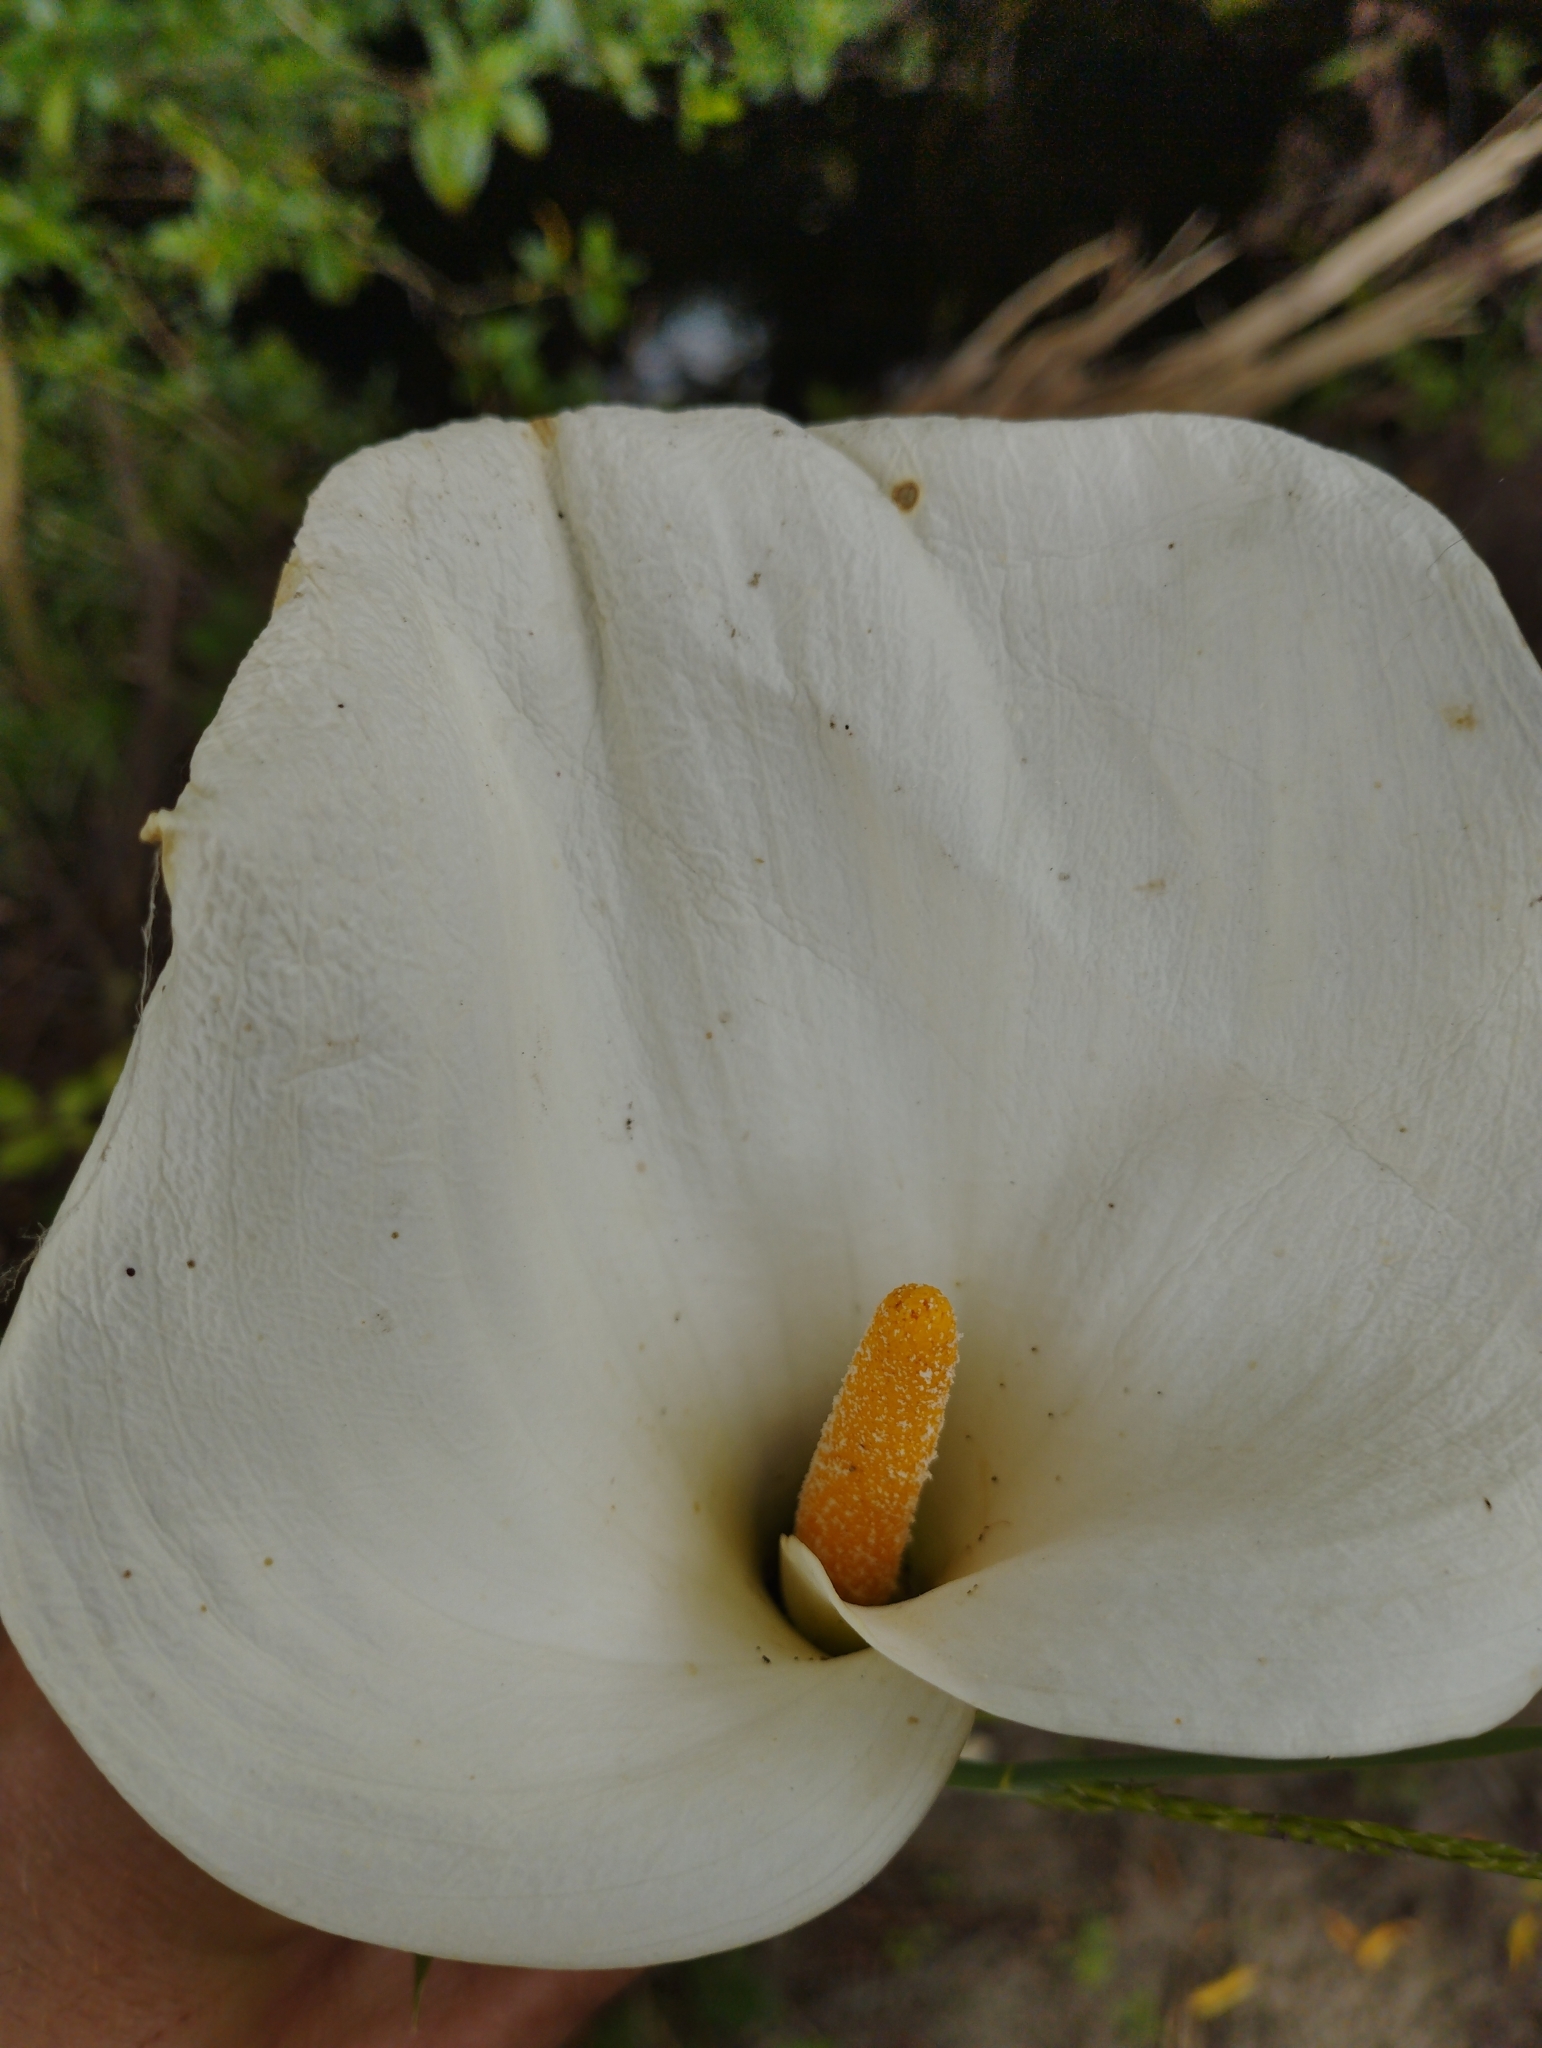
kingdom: Plantae
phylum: Tracheophyta
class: Liliopsida
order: Alismatales
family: Araceae
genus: Zantedeschia
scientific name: Zantedeschia aethiopica
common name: Altar-lily
